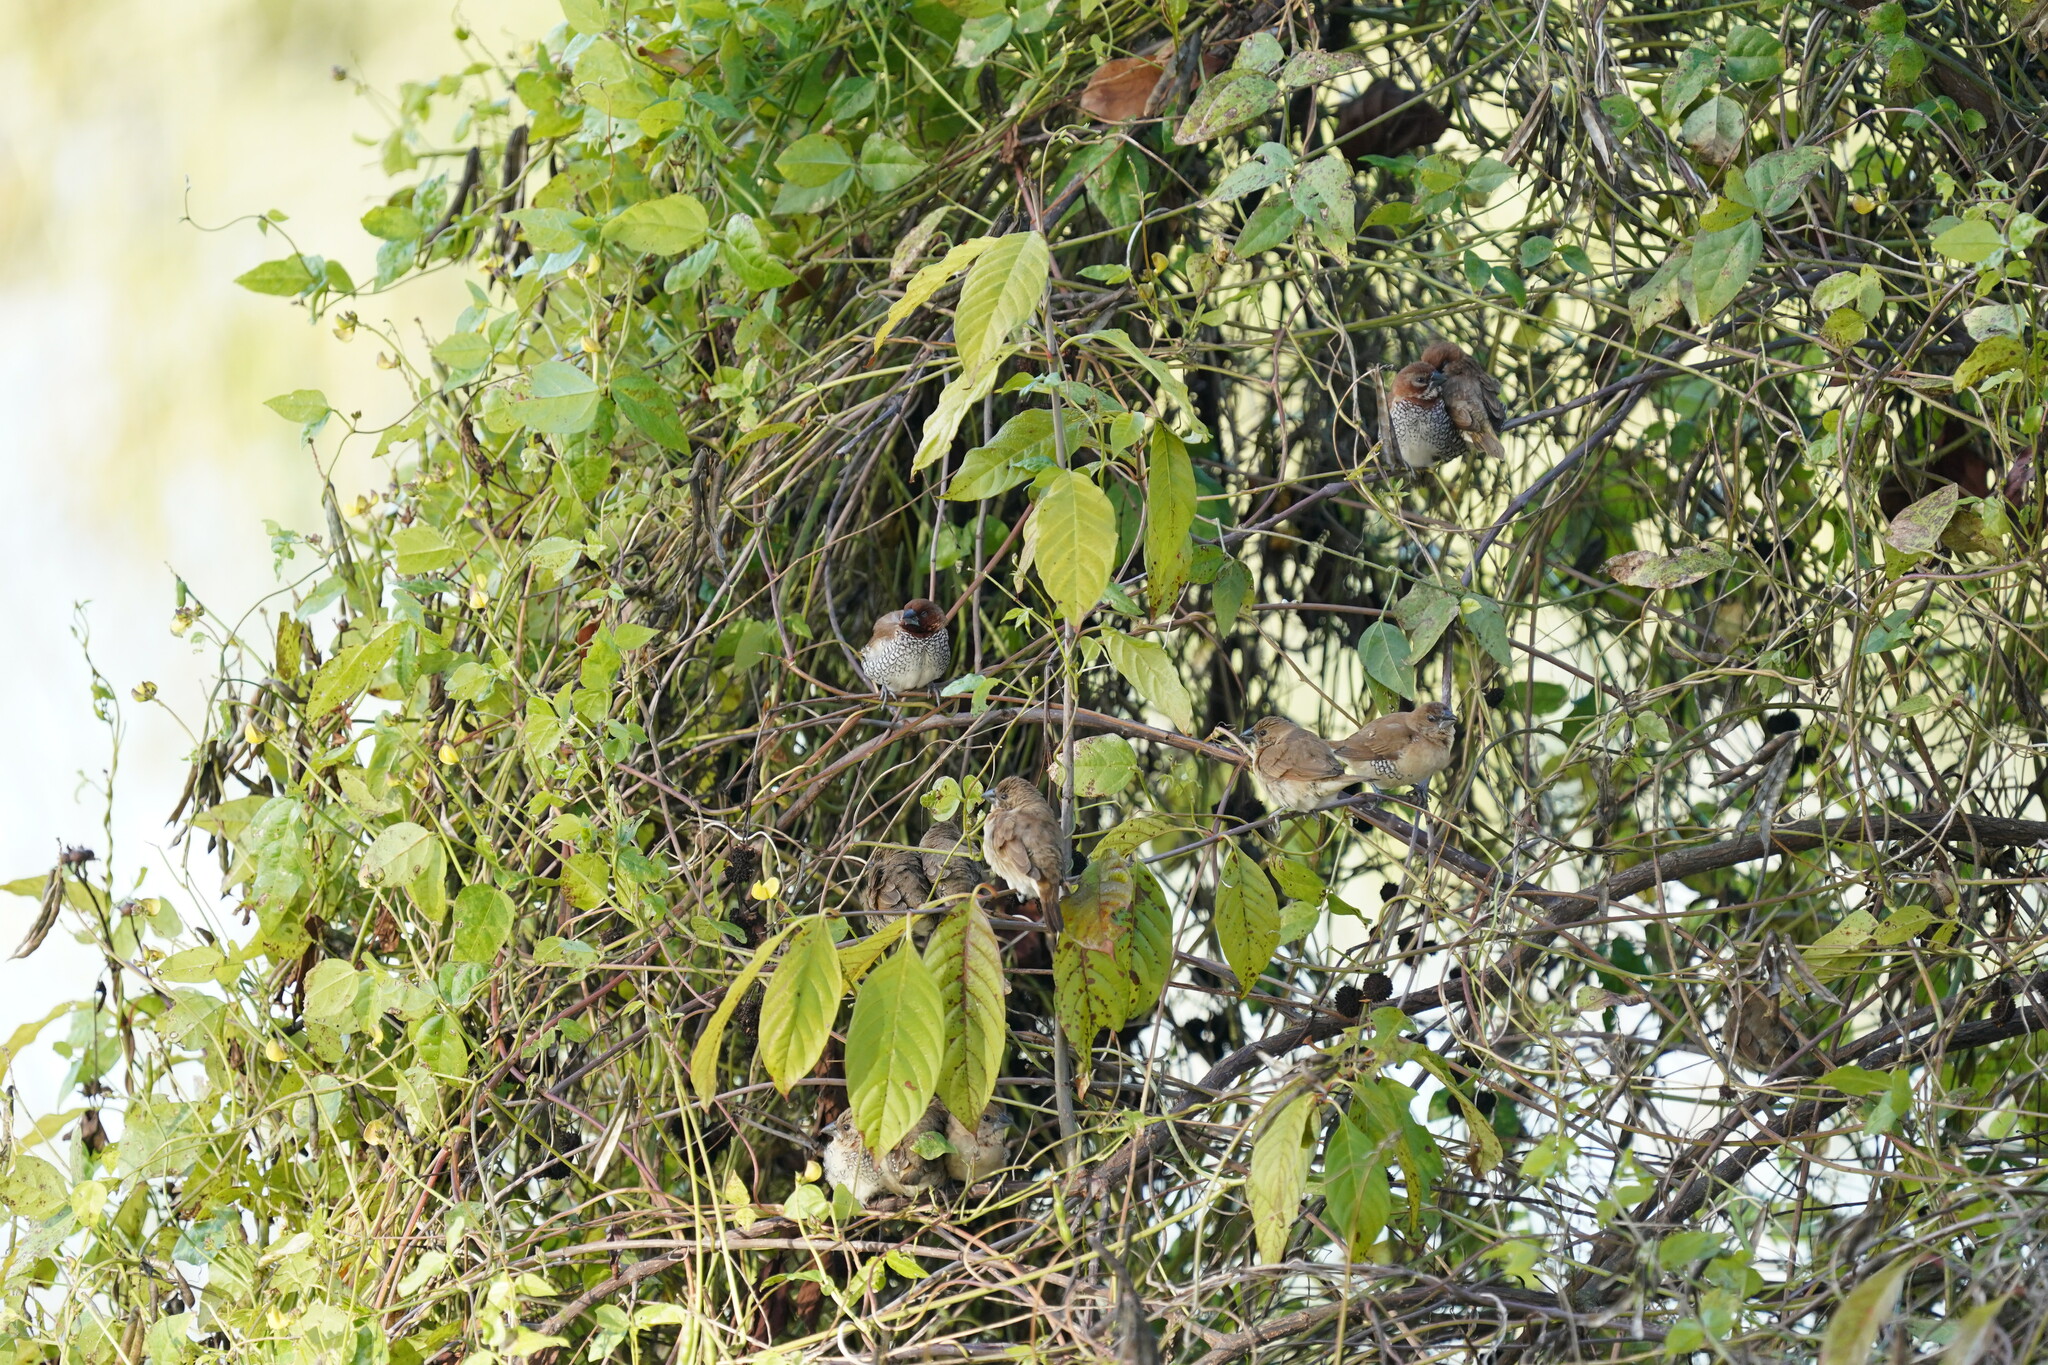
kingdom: Animalia
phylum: Chordata
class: Aves
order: Passeriformes
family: Estrildidae
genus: Lonchura
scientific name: Lonchura punctulata
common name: Scaly-breasted munia
